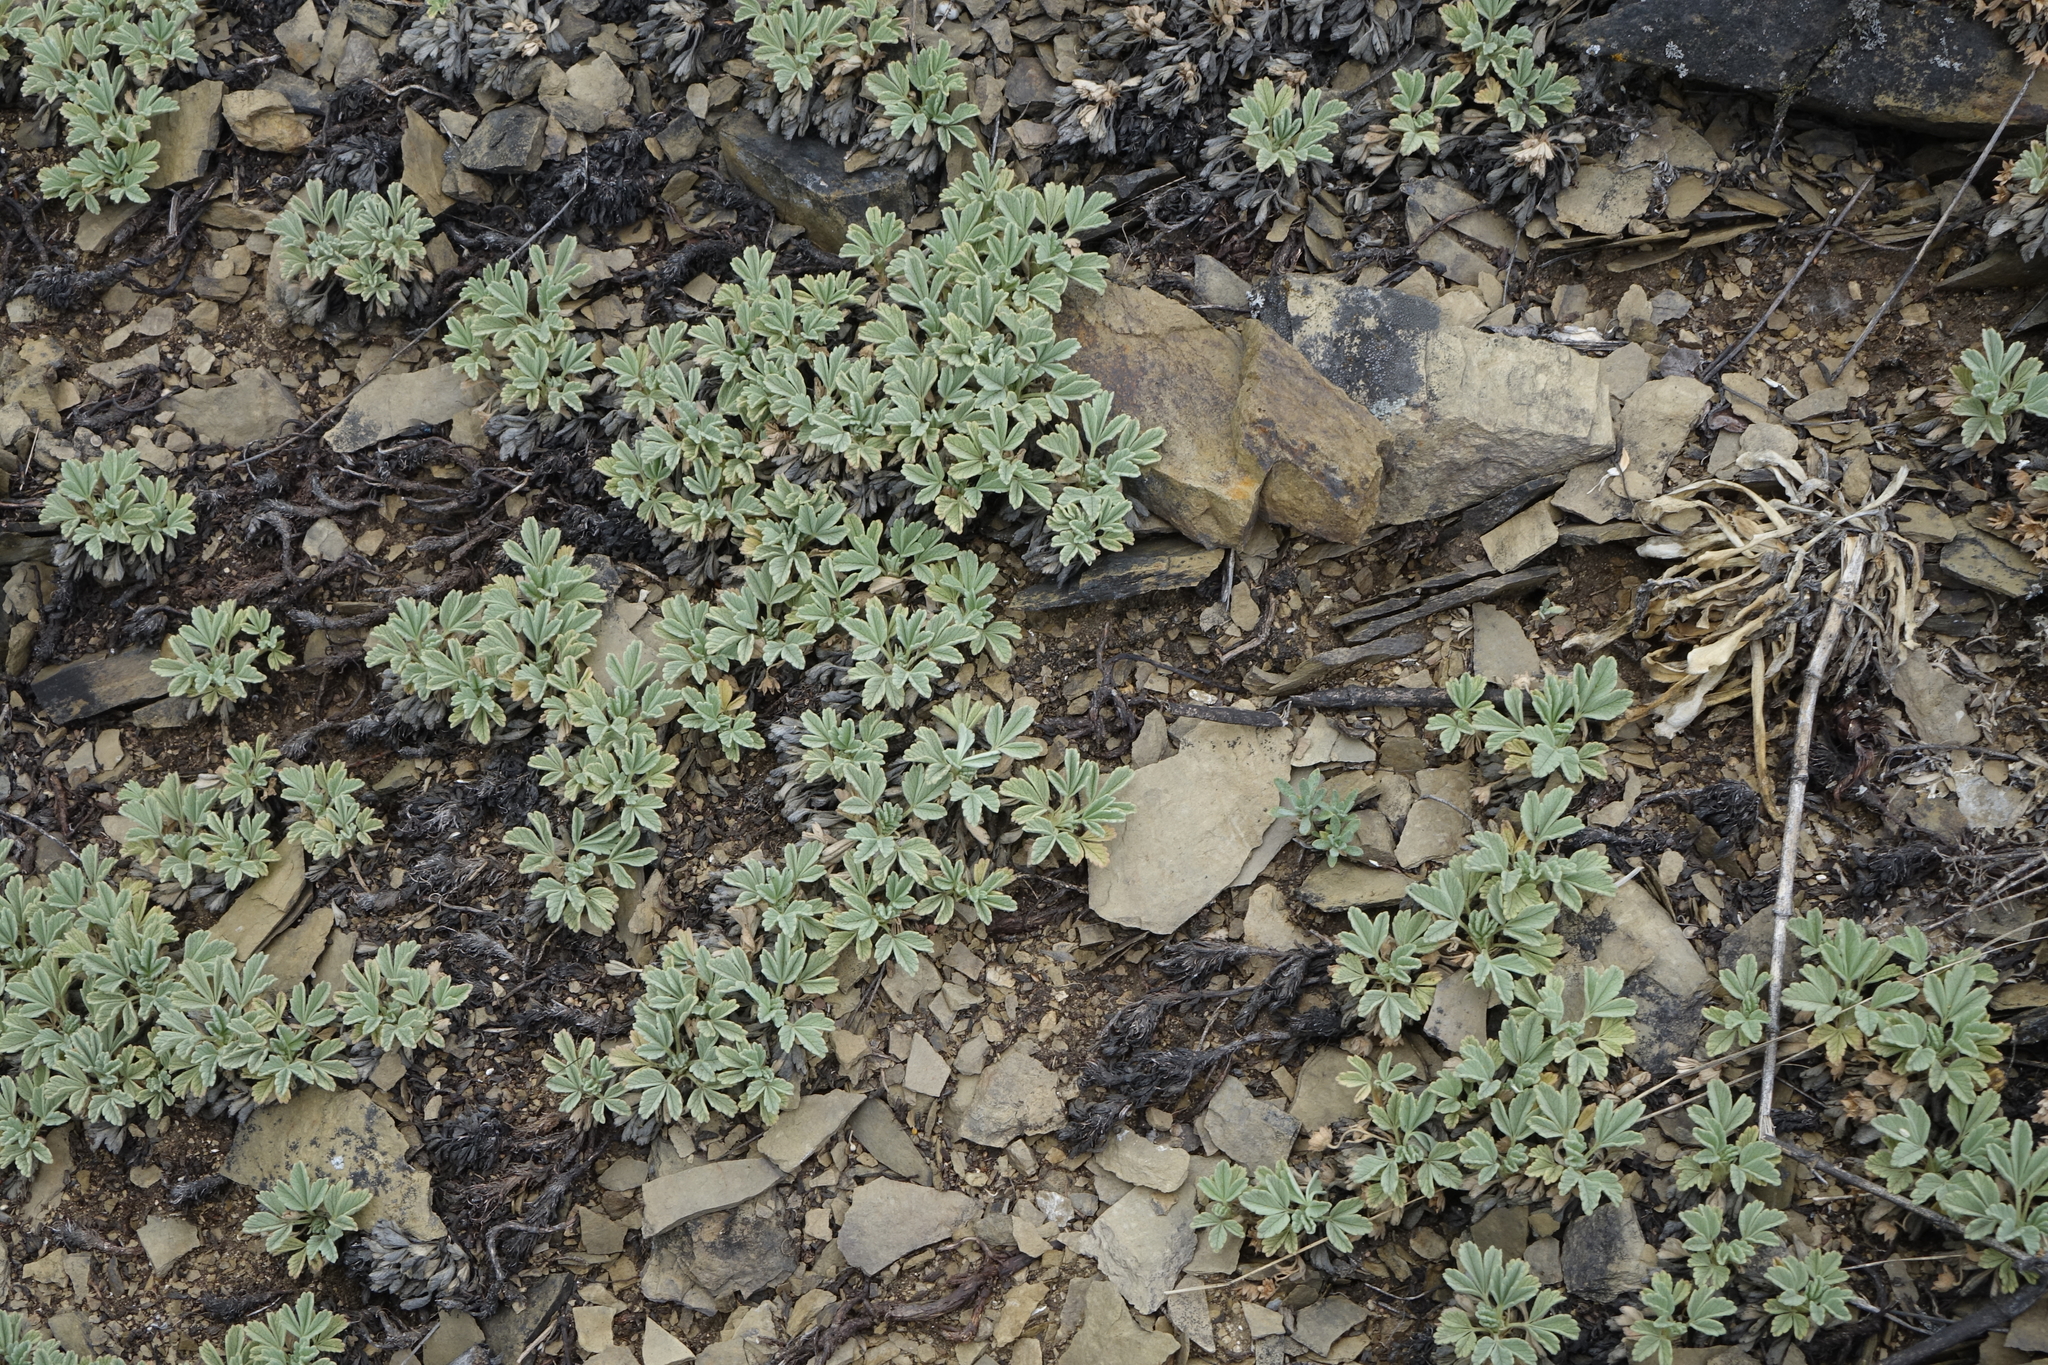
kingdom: Plantae
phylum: Tracheophyta
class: Magnoliopsida
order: Rosales
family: Rosaceae
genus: Potentilla
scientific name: Potentilla acaulis
